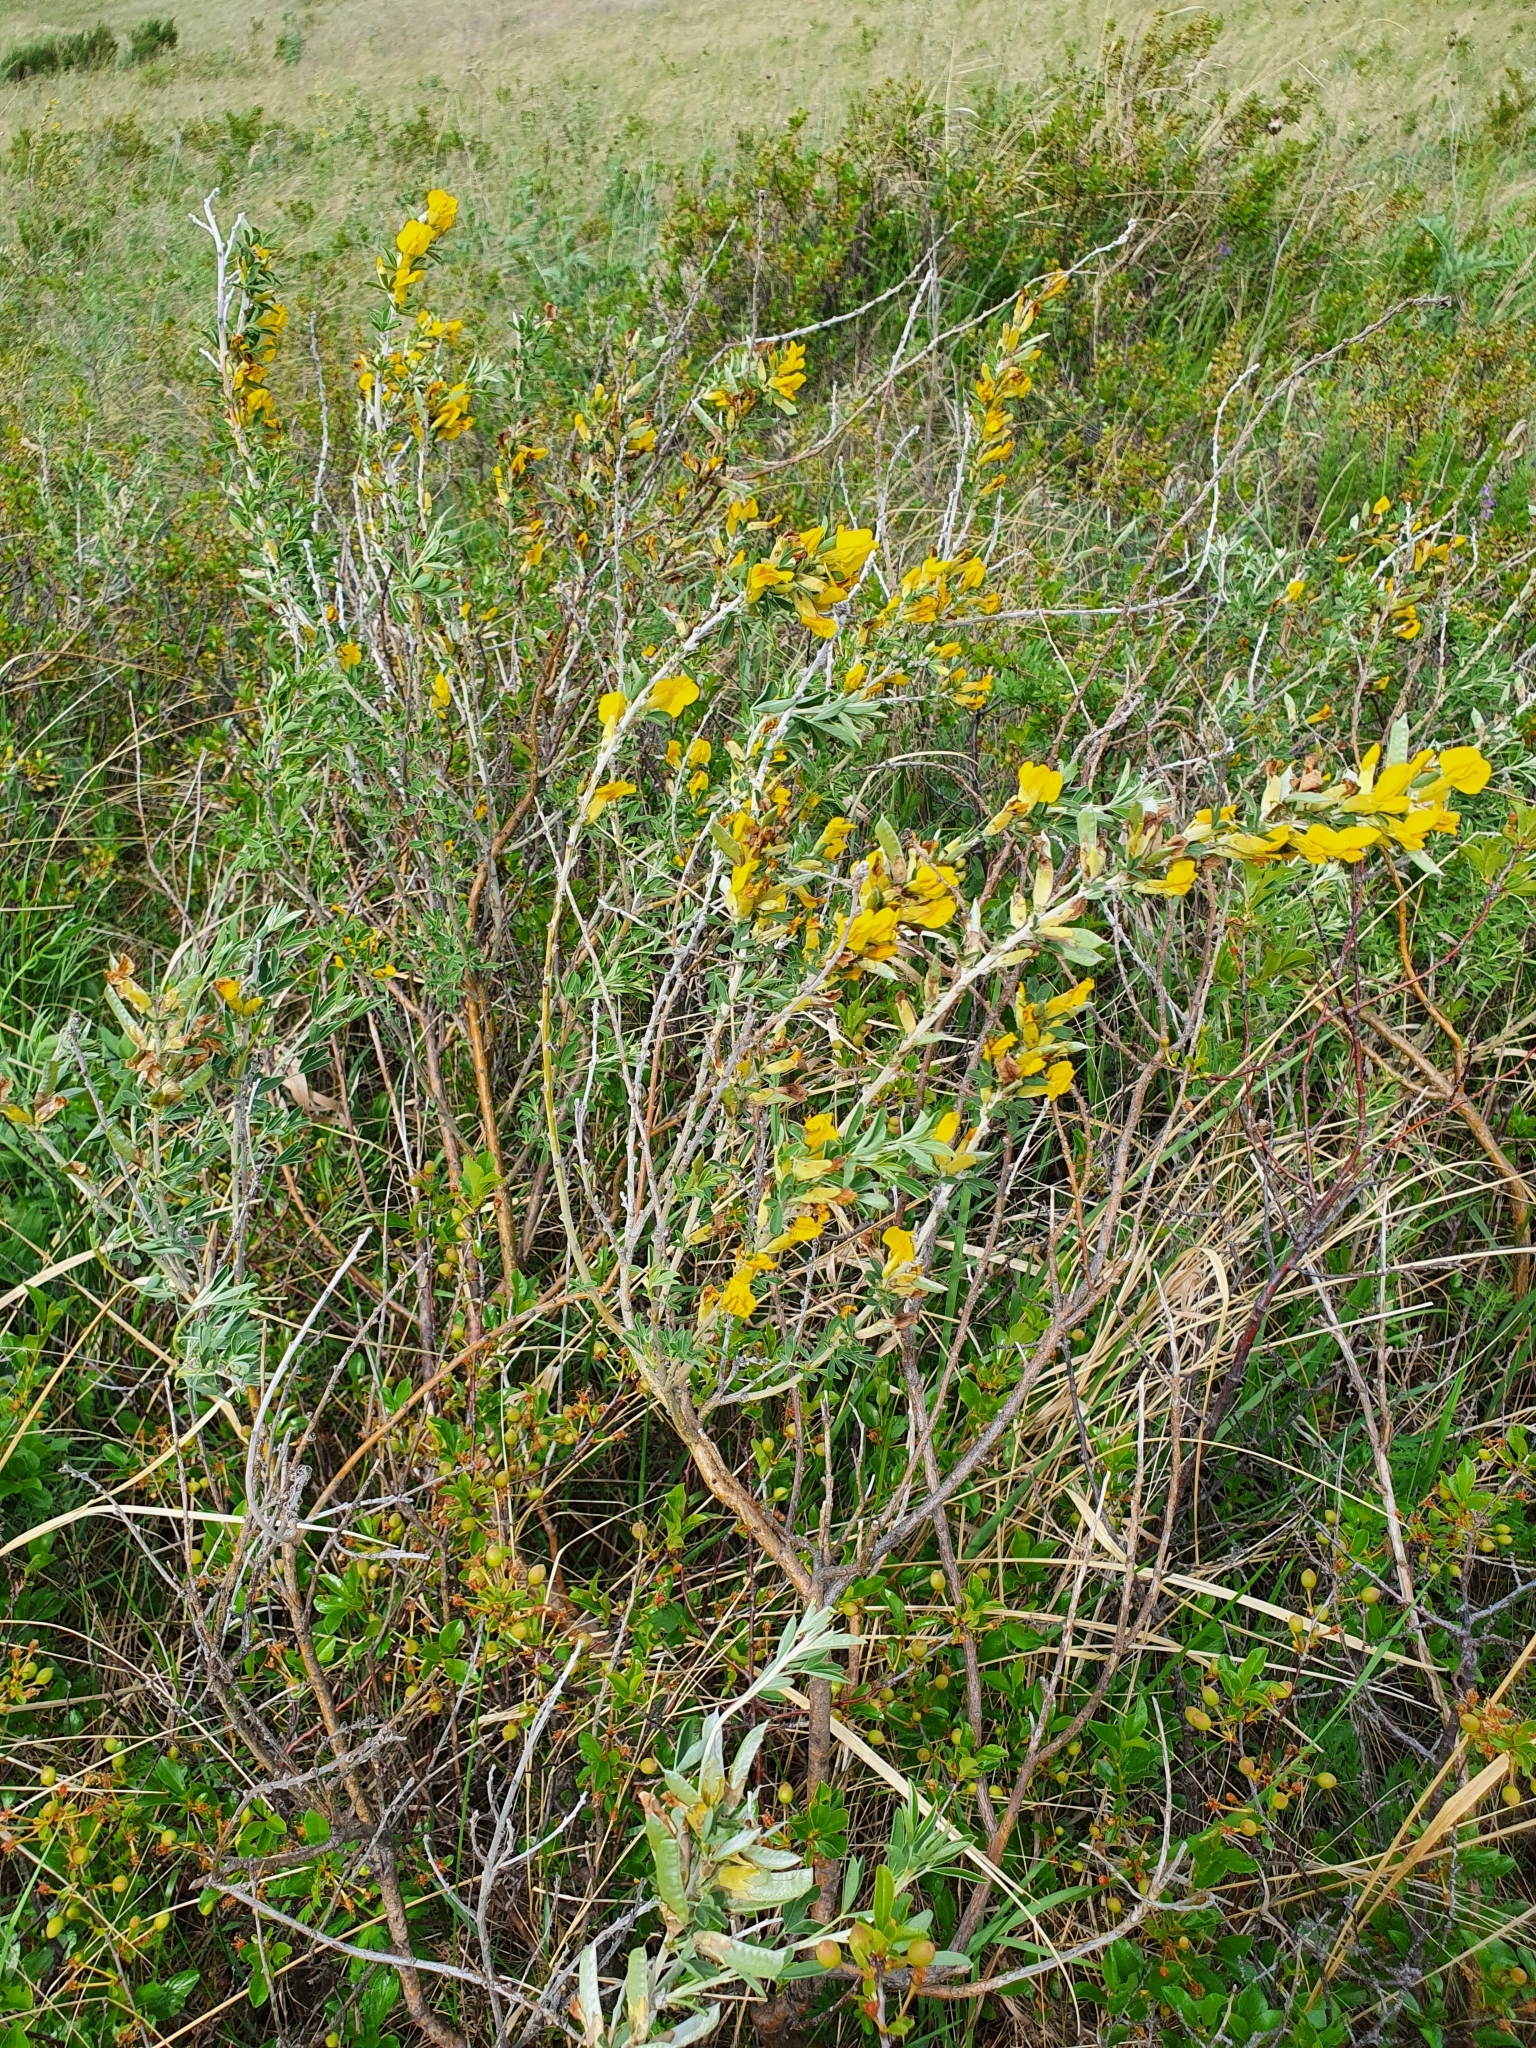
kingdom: Plantae
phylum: Tracheophyta
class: Magnoliopsida
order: Fabales
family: Fabaceae
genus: Chamaecytisus
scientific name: Chamaecytisus ruthenicus
